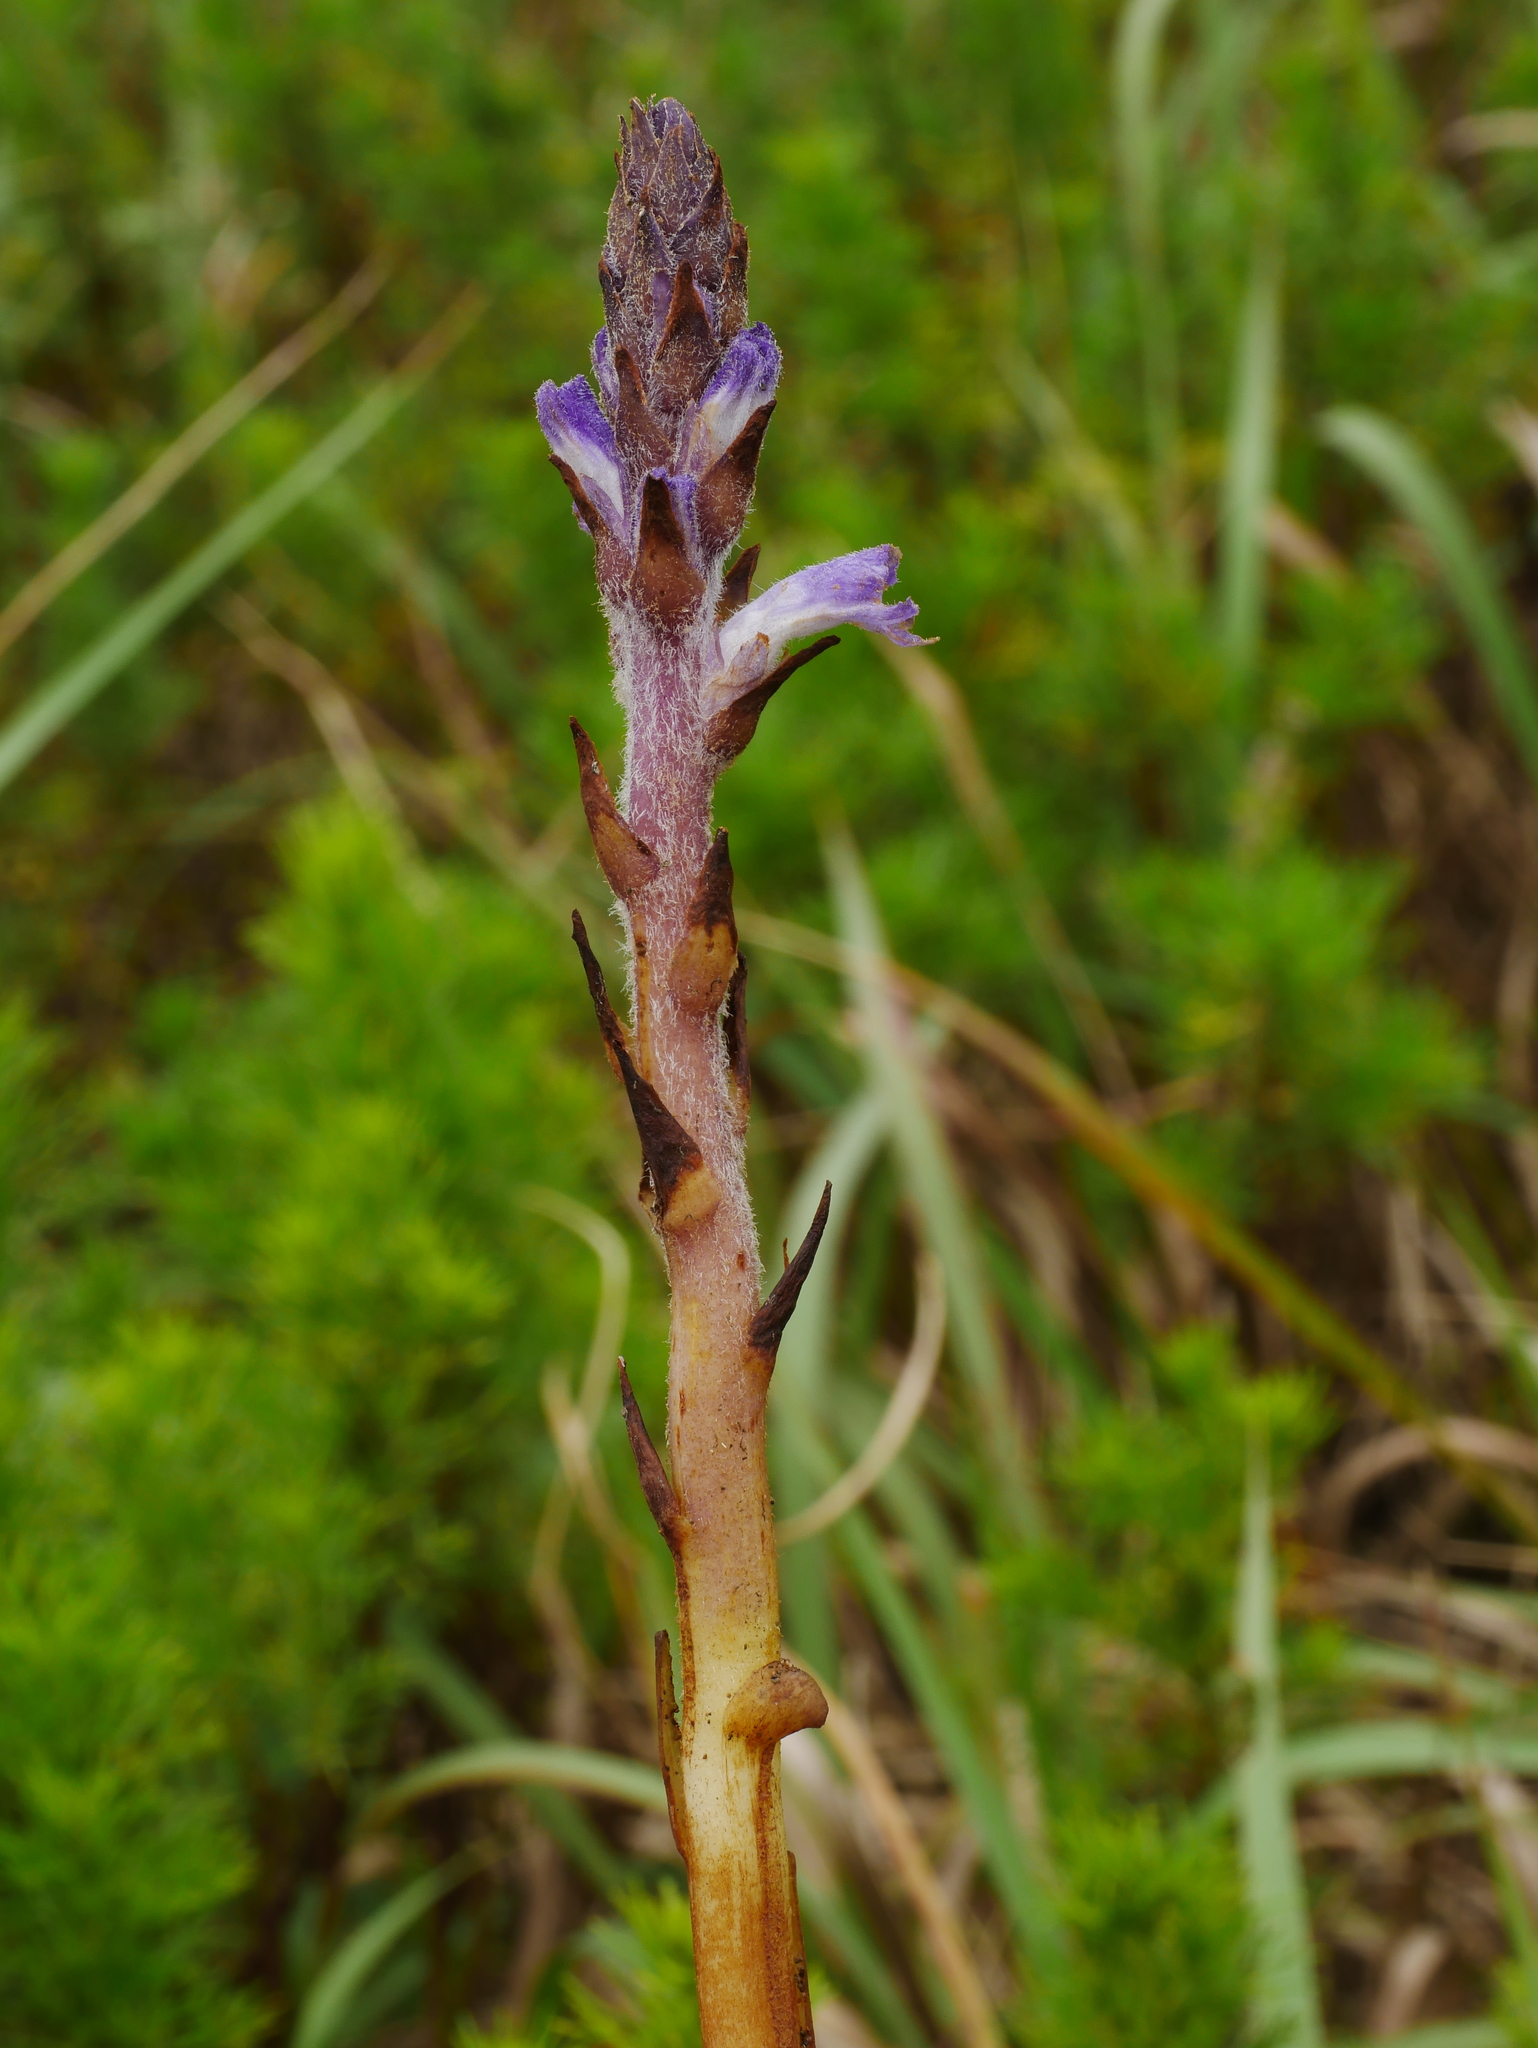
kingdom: Plantae
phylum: Tracheophyta
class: Magnoliopsida
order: Lamiales
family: Orobanchaceae
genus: Orobanche
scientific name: Orobanche coerulescens
